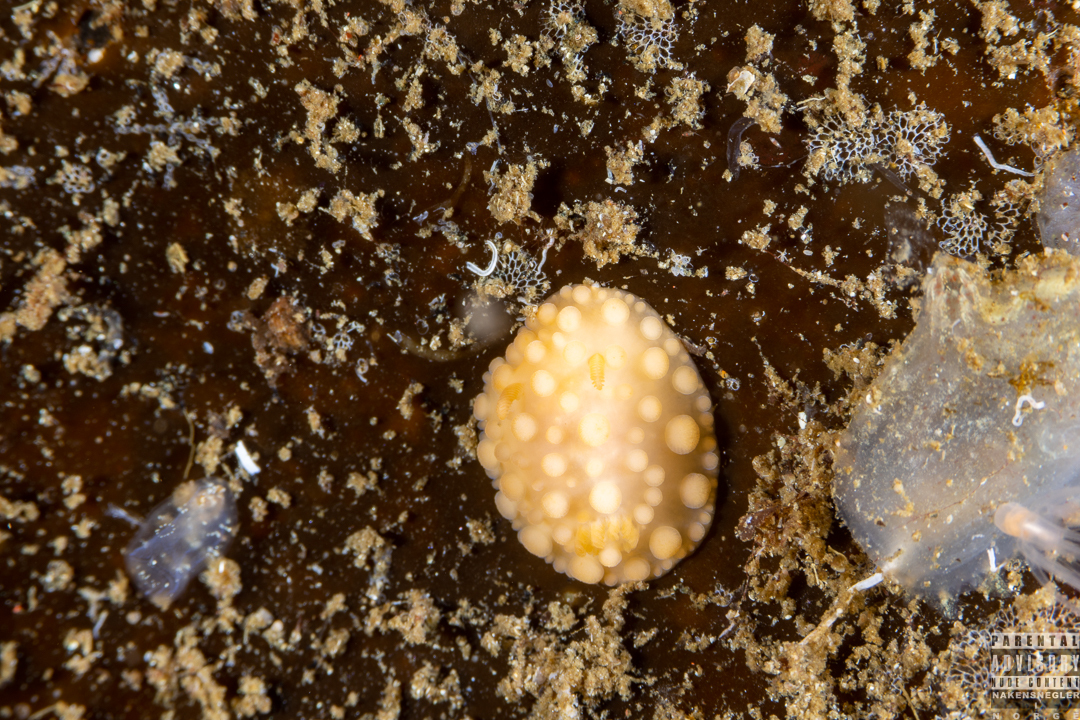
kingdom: Animalia
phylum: Mollusca
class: Gastropoda
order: Nudibranchia
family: Onchidorididae
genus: Adalaria
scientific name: Adalaria loveni
